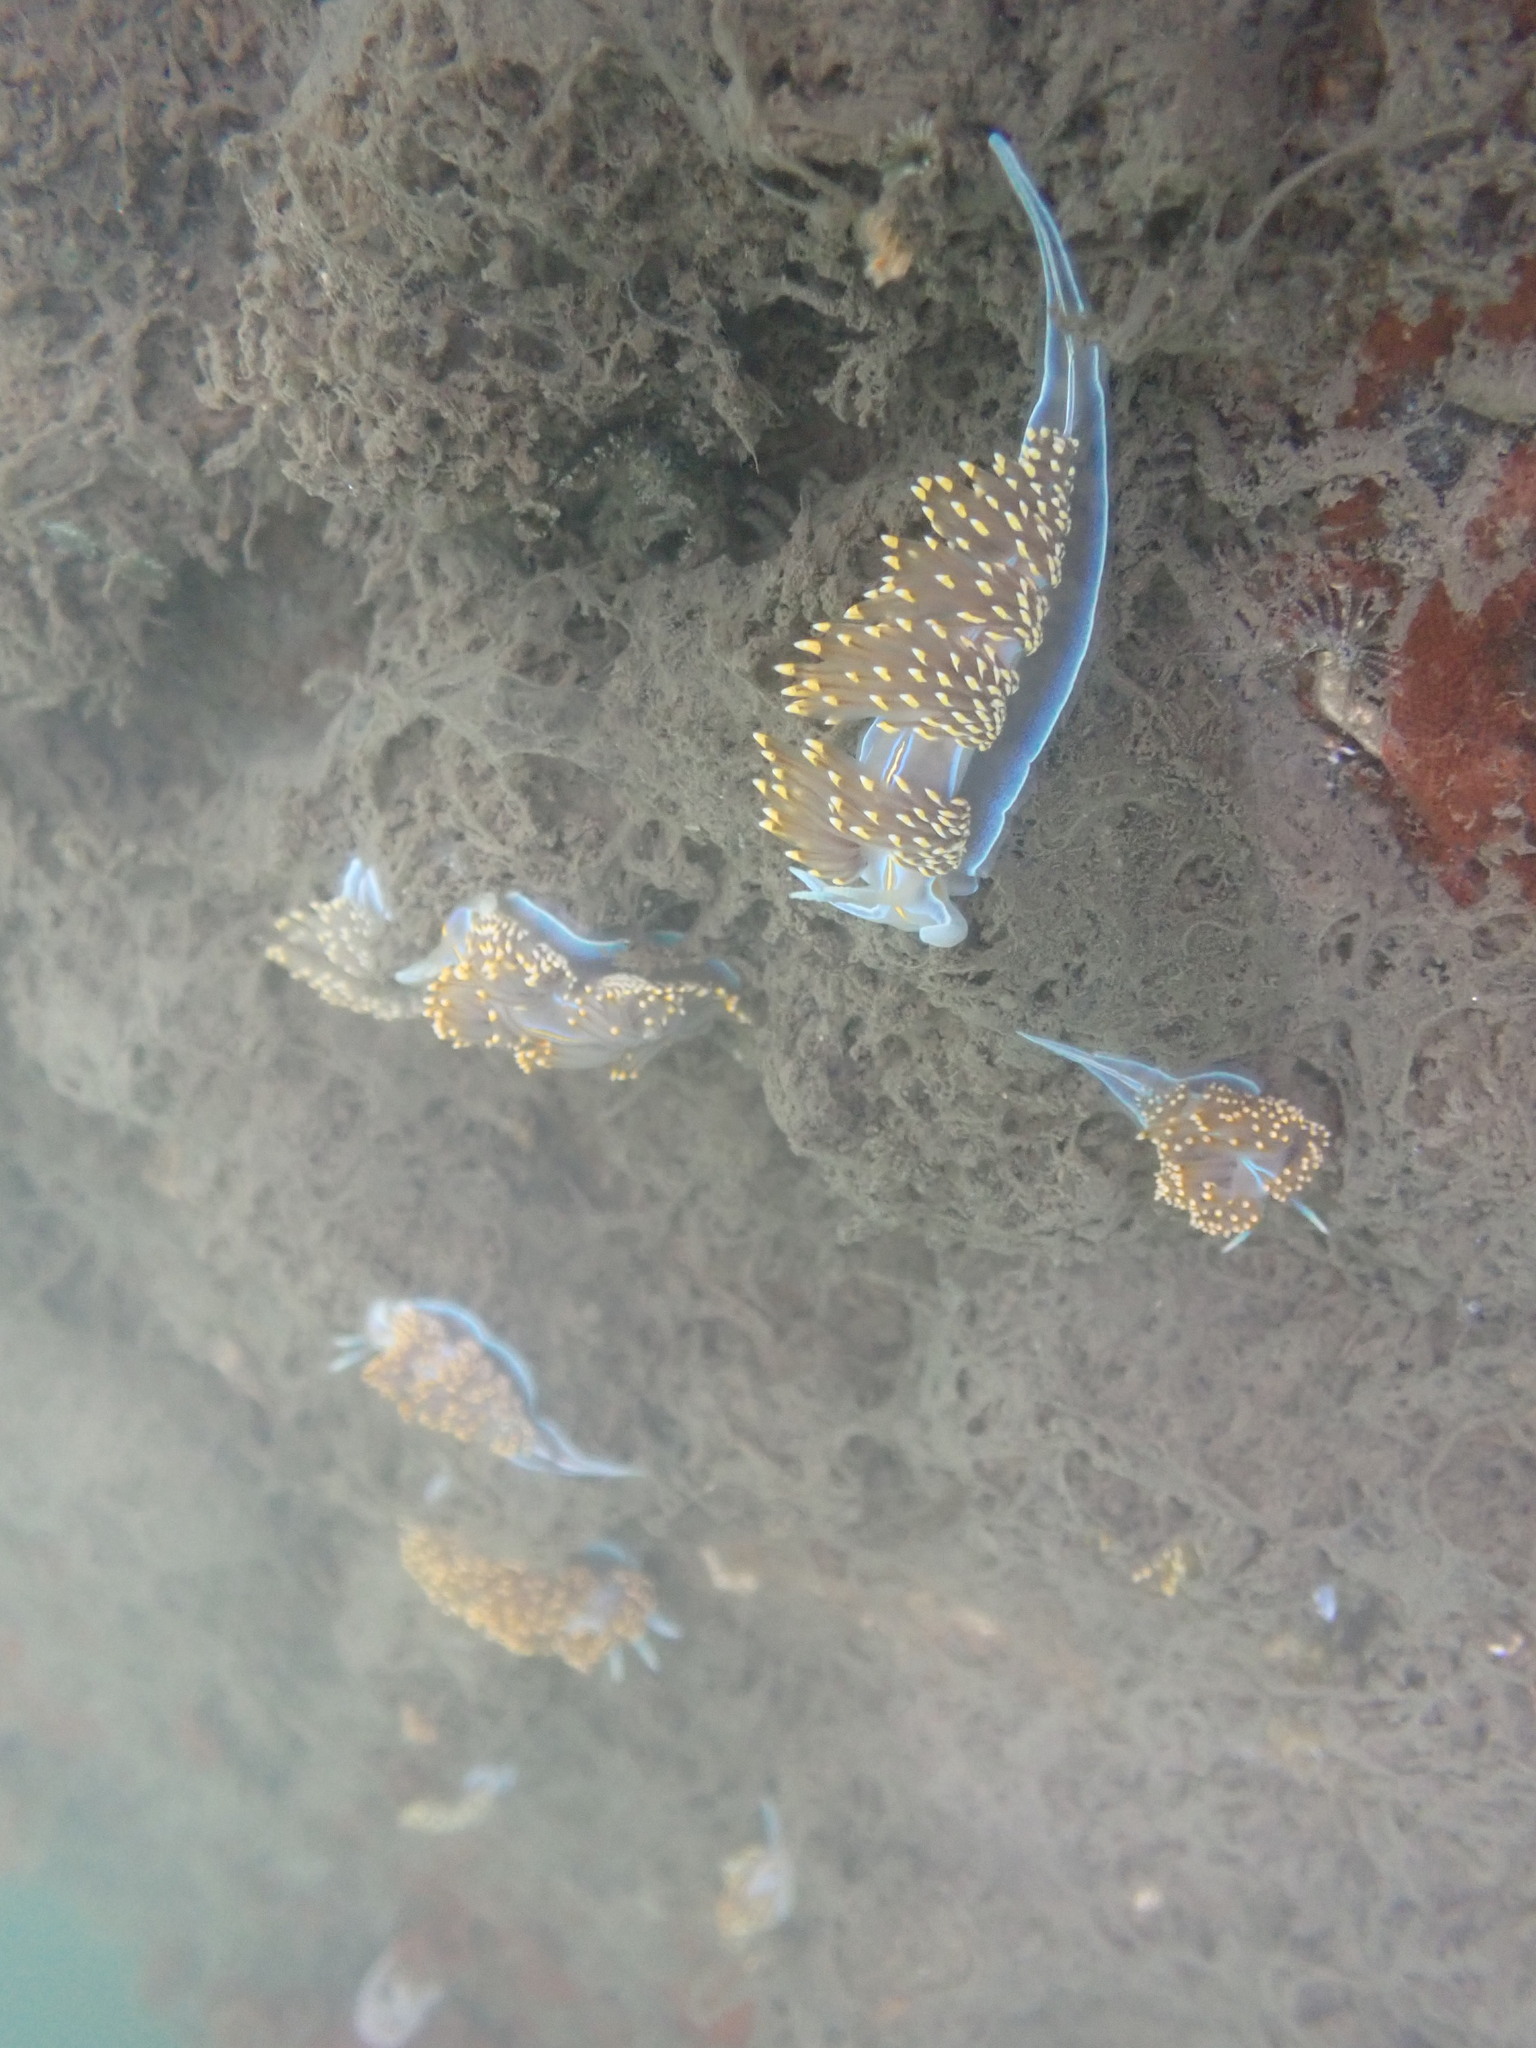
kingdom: Animalia
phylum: Mollusca
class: Gastropoda
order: Nudibranchia
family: Myrrhinidae
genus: Hermissenda
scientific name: Hermissenda opalescens
